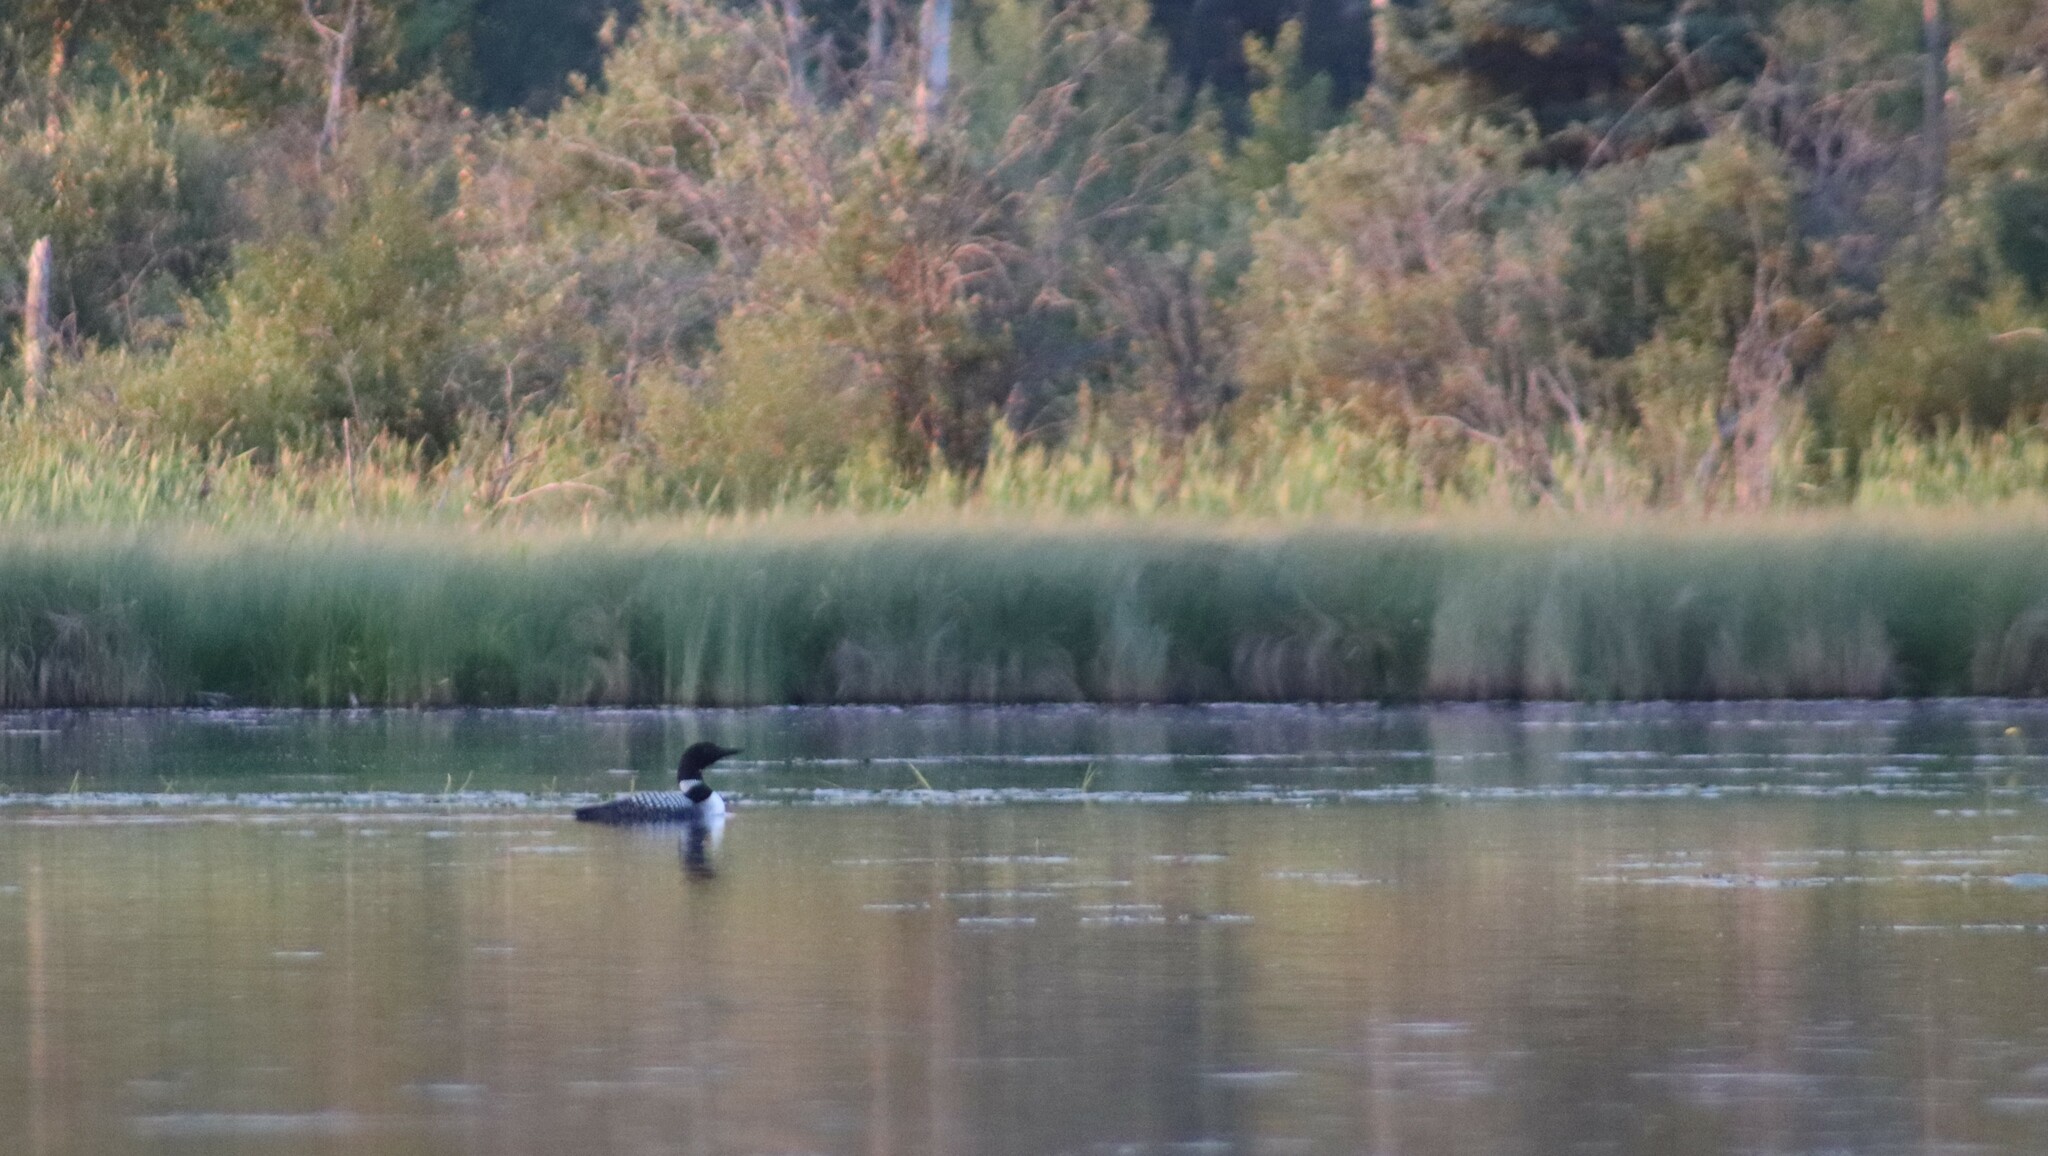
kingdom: Animalia
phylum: Chordata
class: Aves
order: Gaviiformes
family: Gaviidae
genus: Gavia
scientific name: Gavia immer
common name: Common loon
